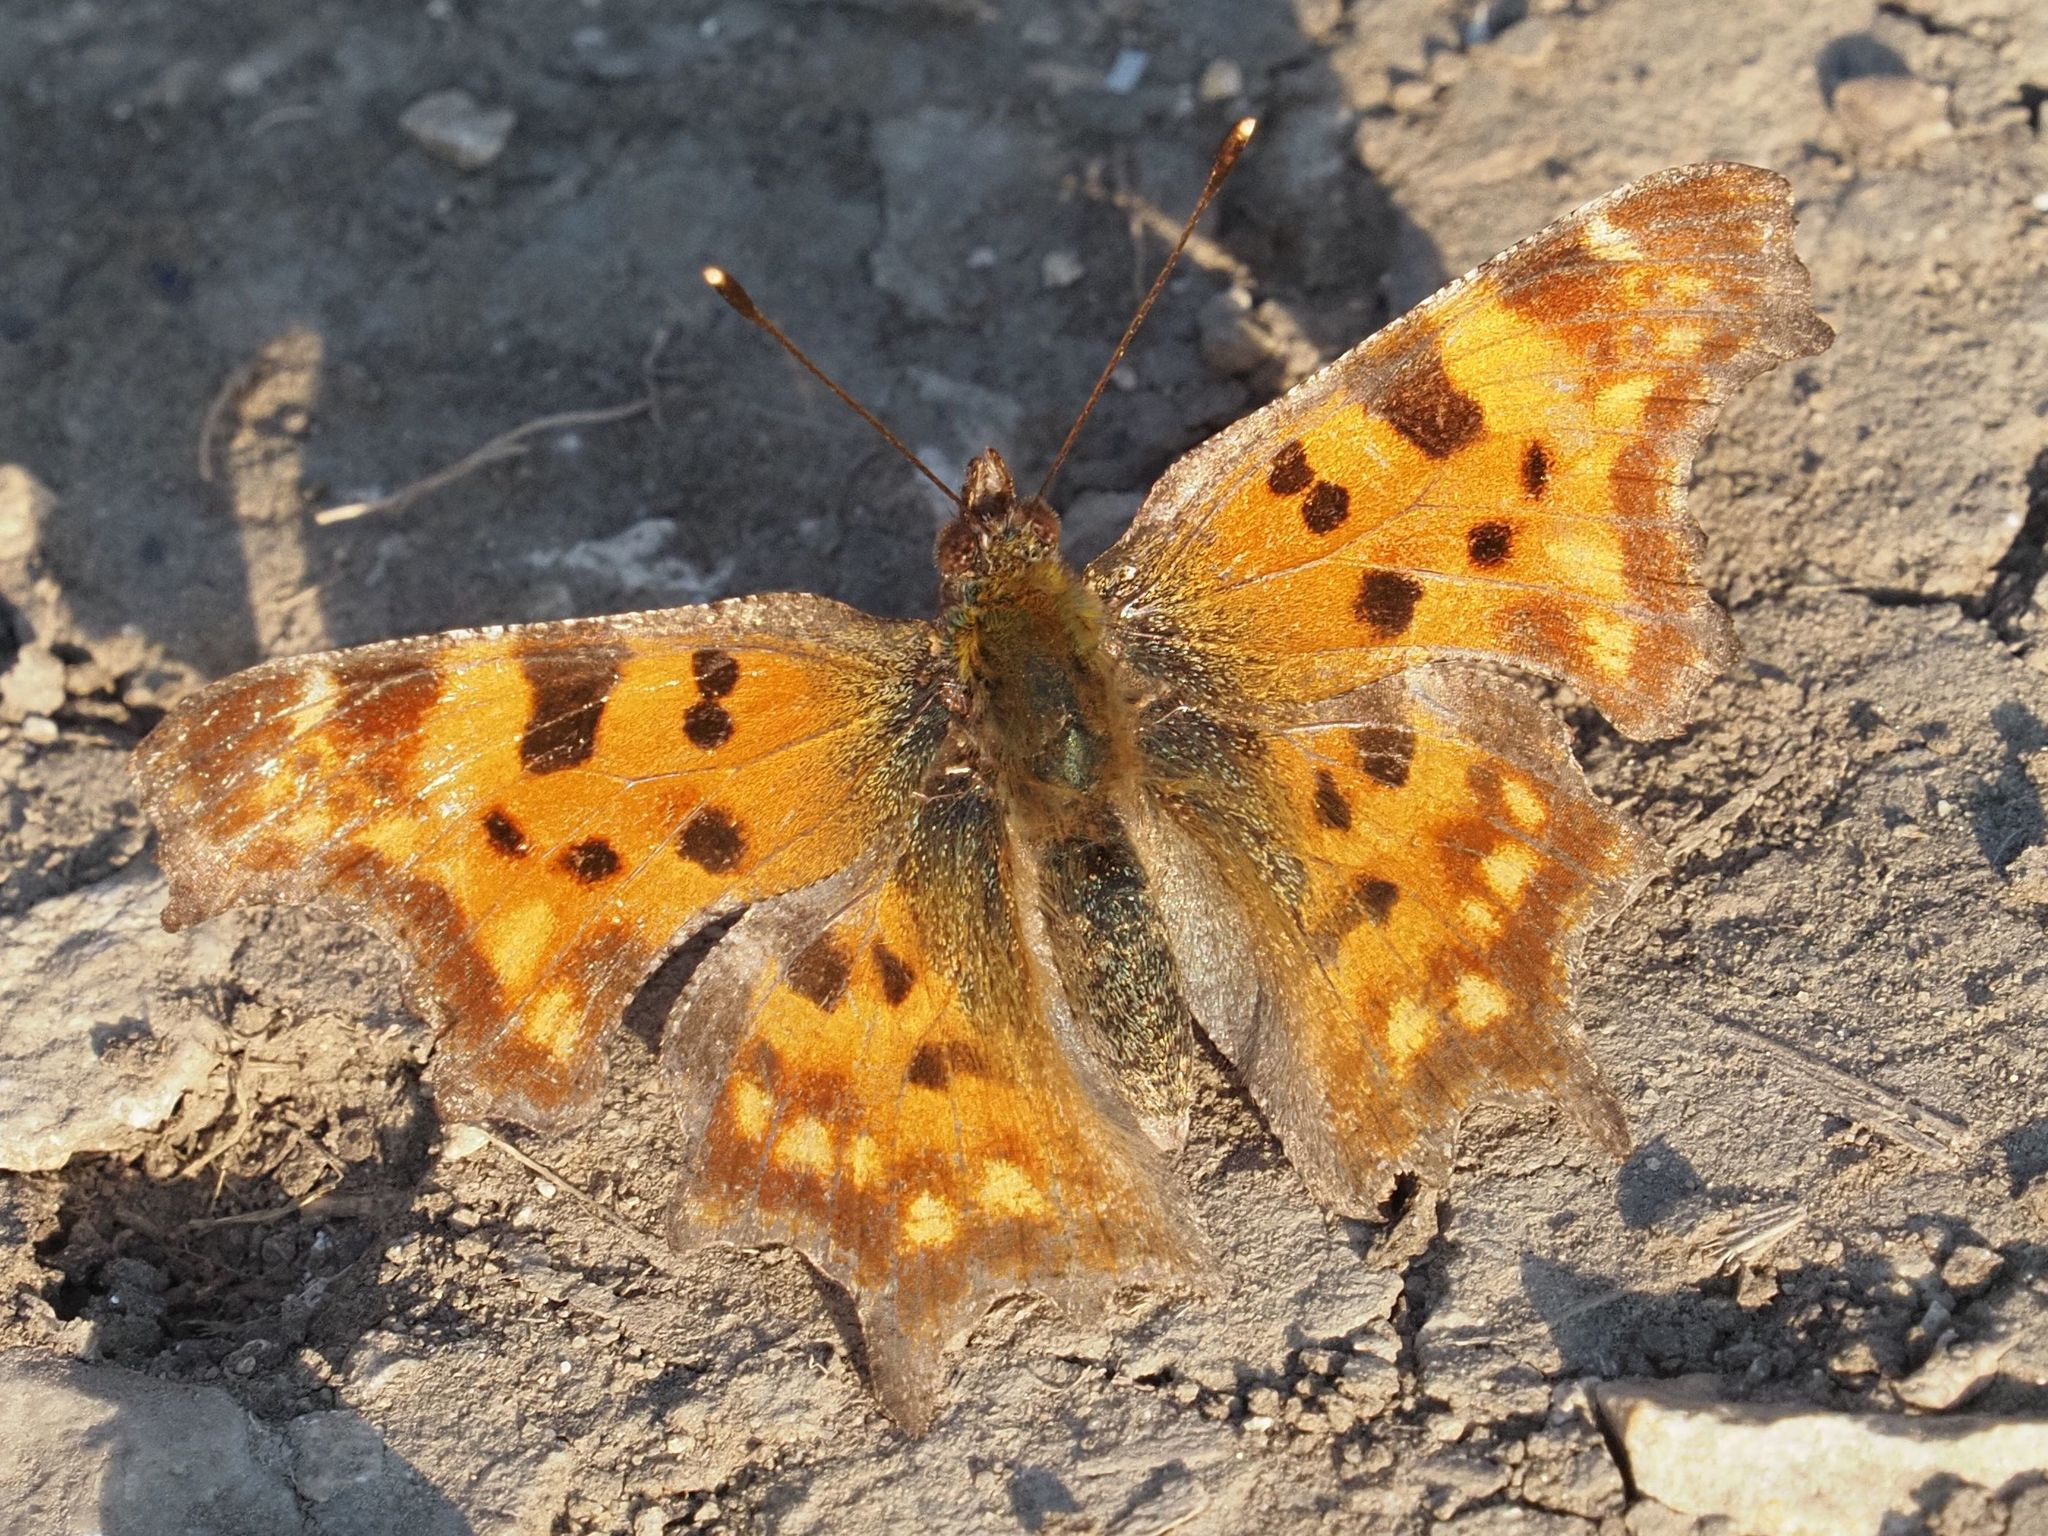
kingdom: Animalia
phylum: Arthropoda
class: Insecta
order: Lepidoptera
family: Nymphalidae
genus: Polygonia
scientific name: Polygonia c-album
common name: Comma
